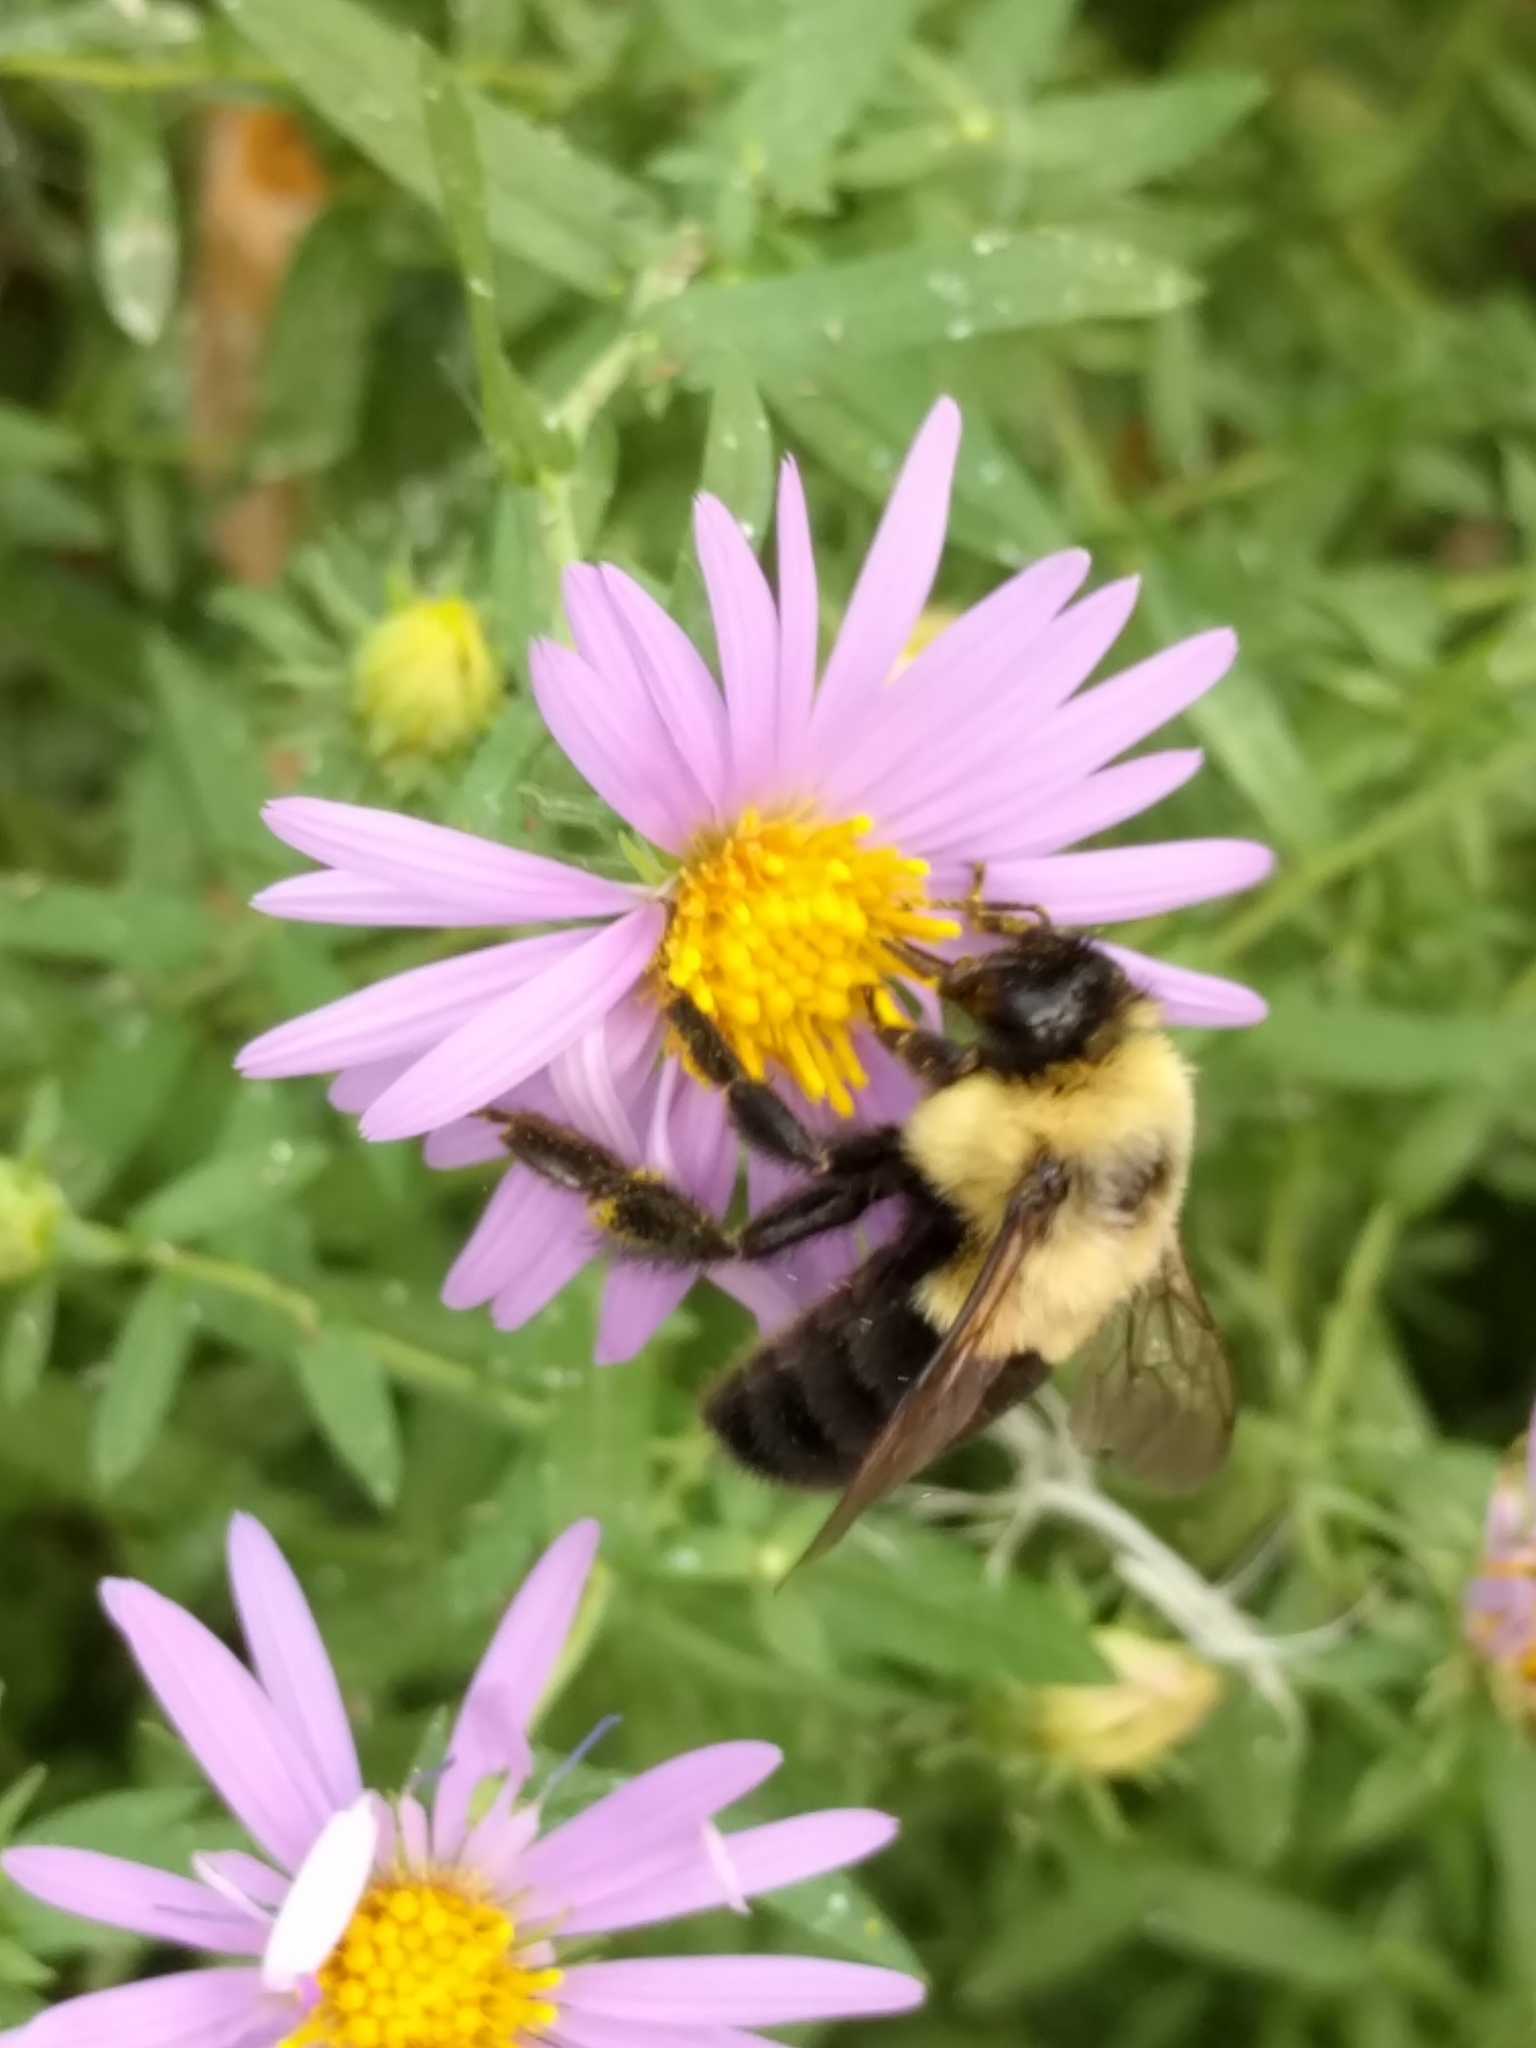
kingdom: Animalia
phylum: Arthropoda
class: Insecta
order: Hymenoptera
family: Apidae
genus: Bombus
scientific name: Bombus impatiens
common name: Common eastern bumble bee
